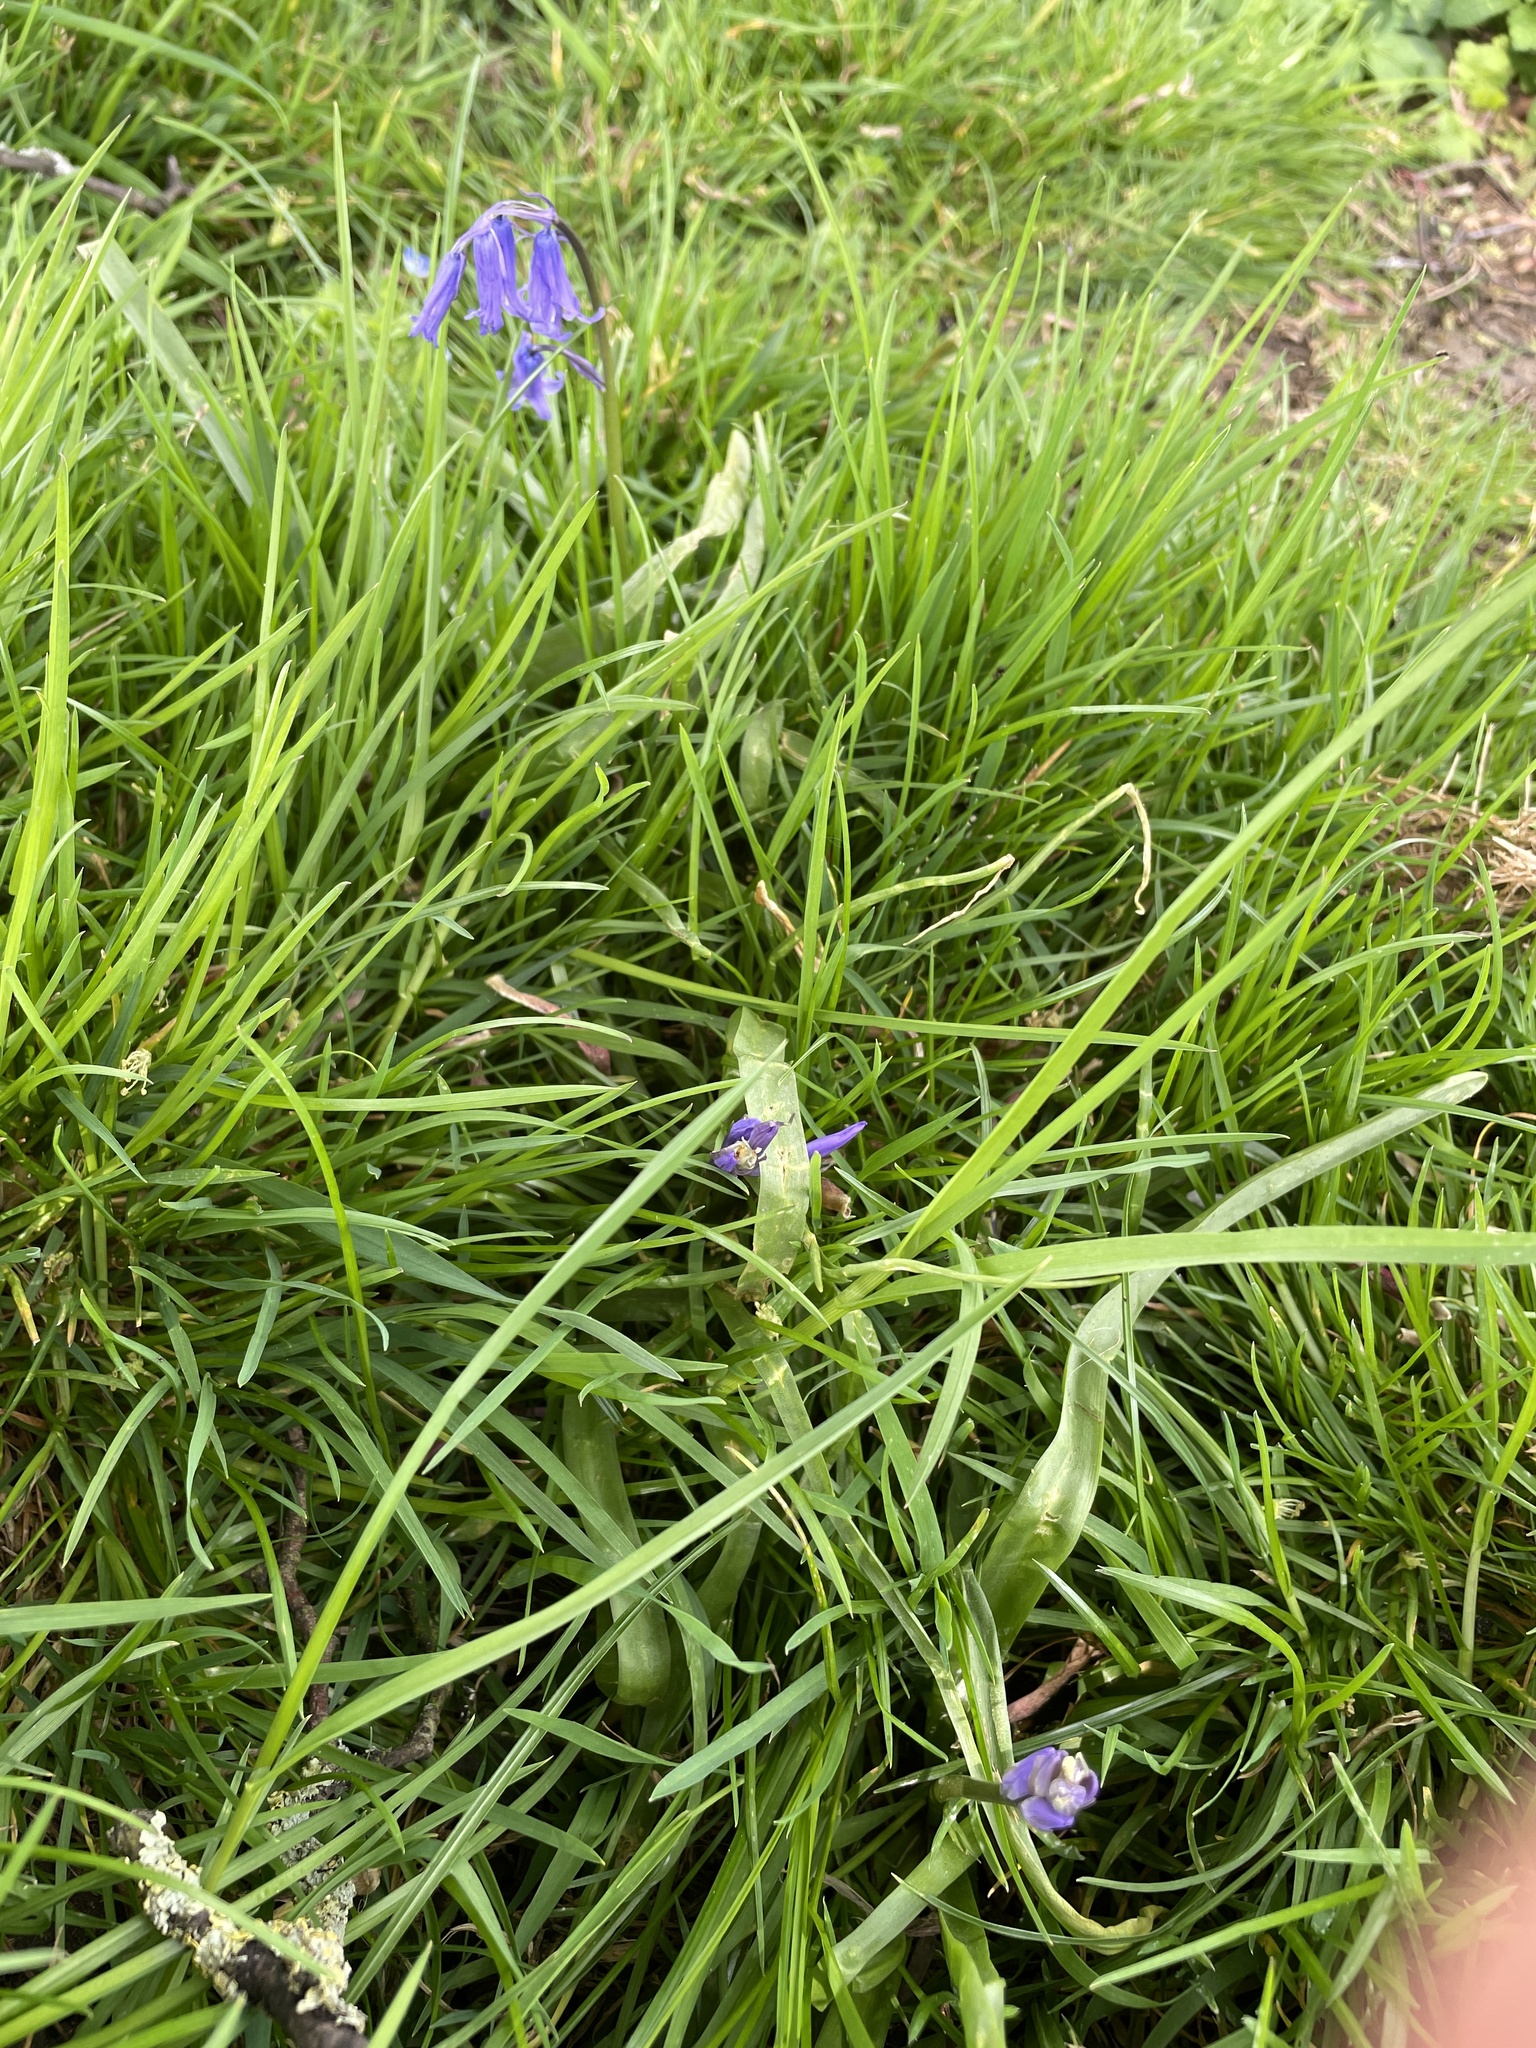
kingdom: Plantae
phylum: Tracheophyta
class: Liliopsida
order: Asparagales
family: Asparagaceae
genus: Hyacinthoides
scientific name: Hyacinthoides non-scripta
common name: Bluebell
